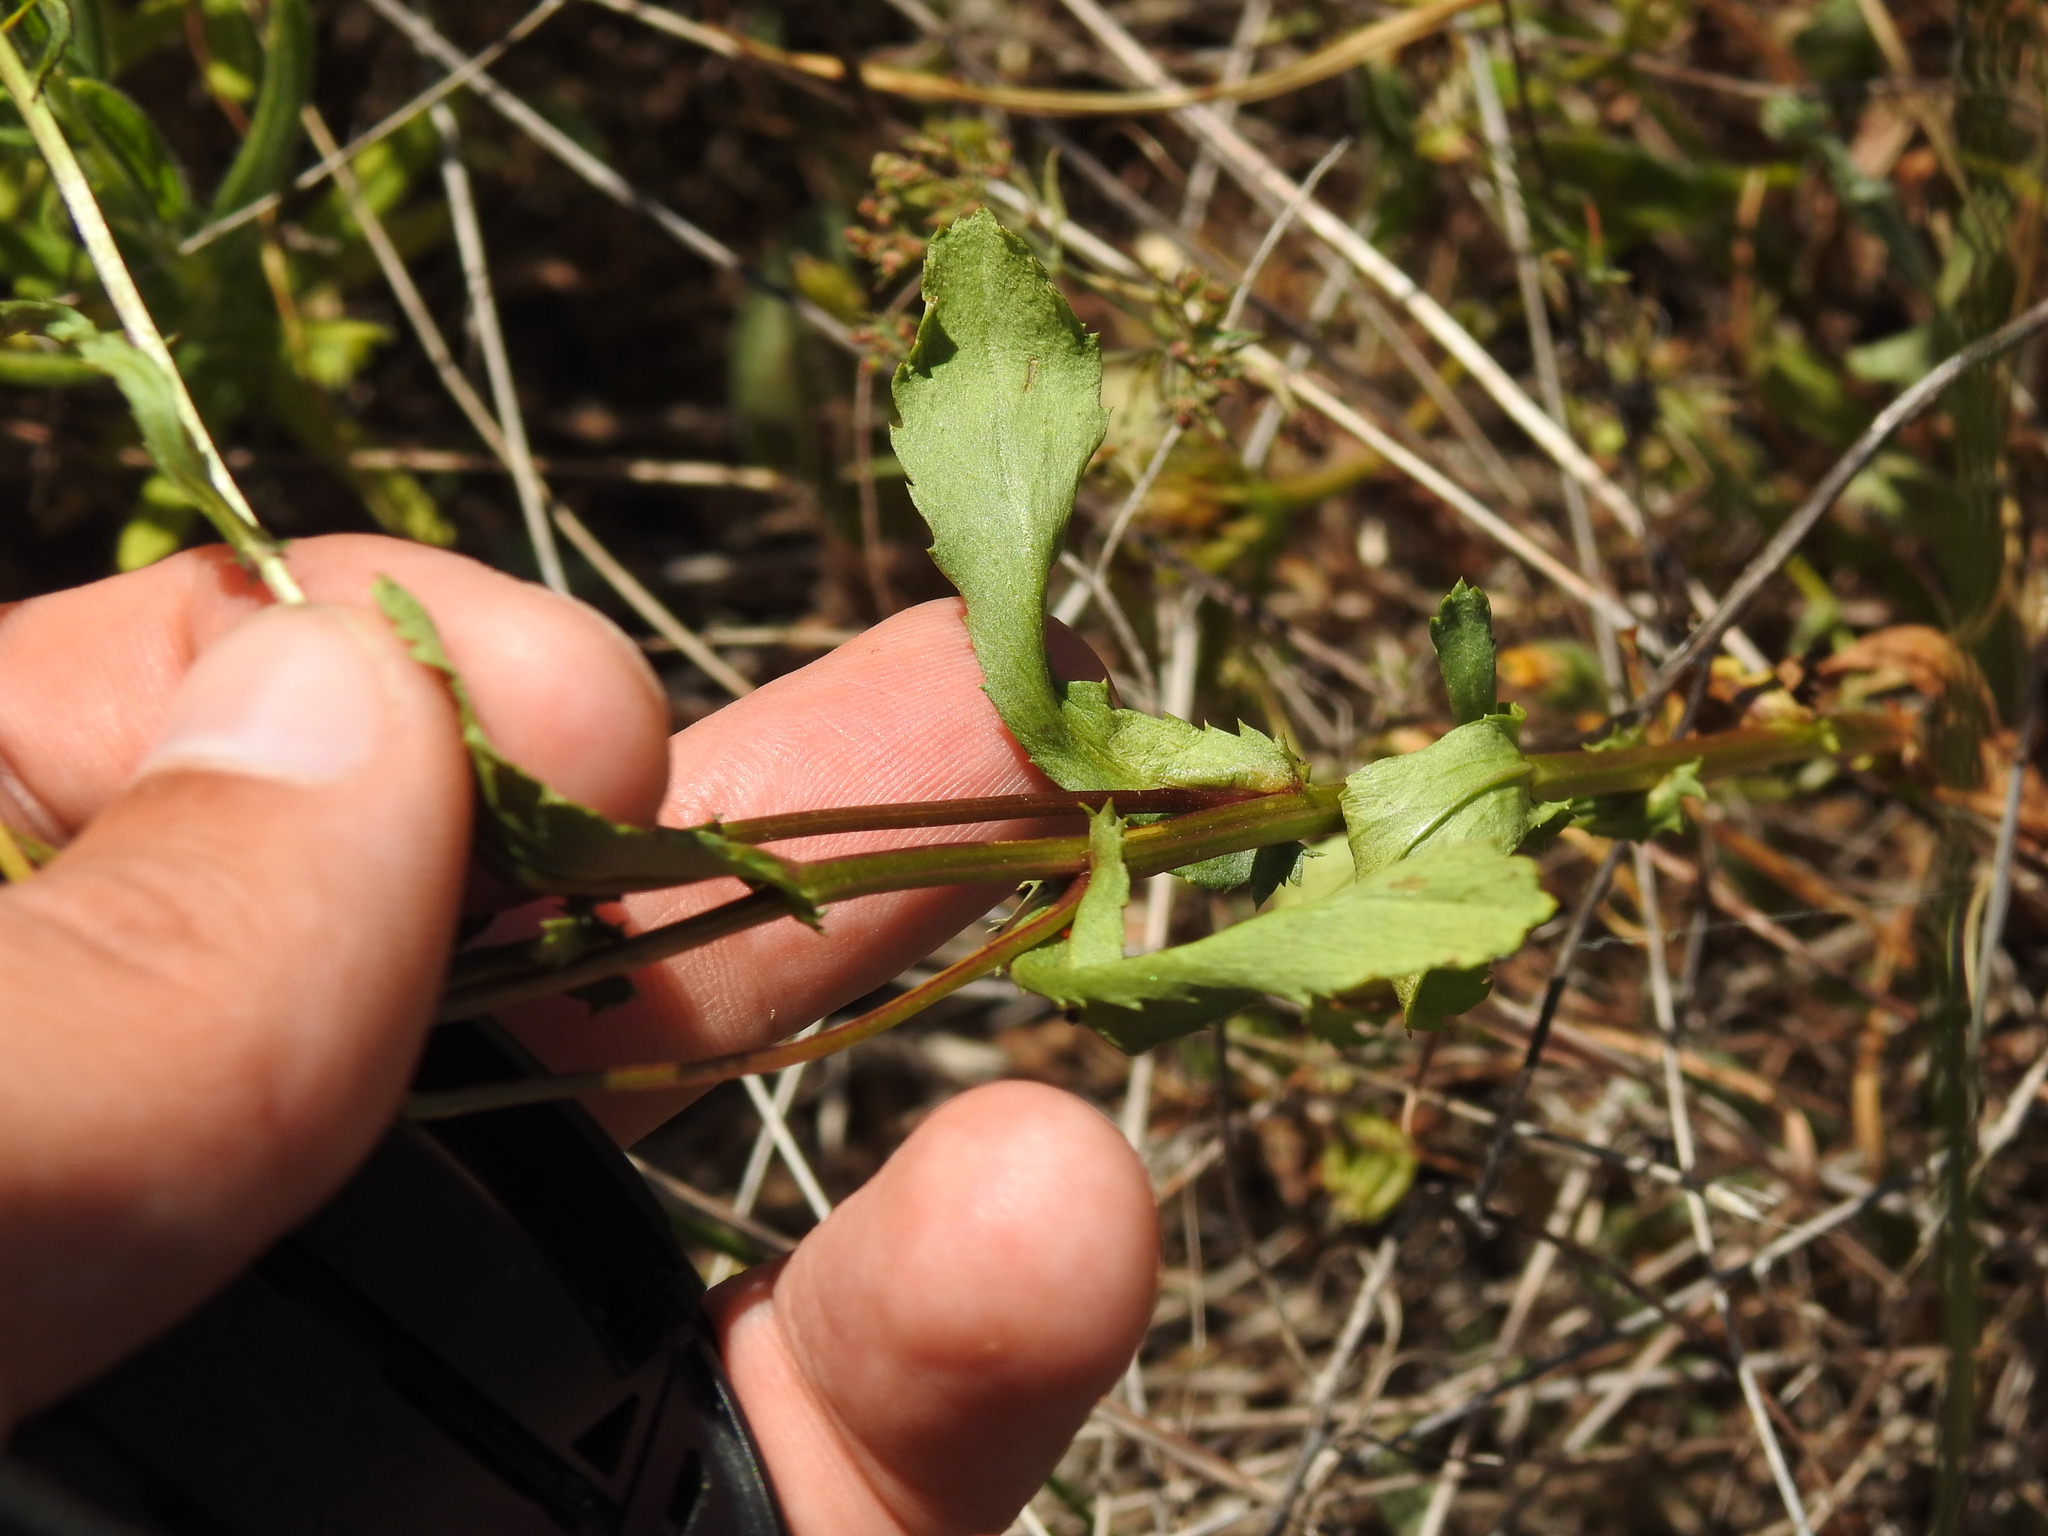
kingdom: Plantae
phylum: Tracheophyta
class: Magnoliopsida
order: Asterales
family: Asteraceae
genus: Coleostephus
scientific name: Coleostephus myconis
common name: Mediterranean marigold
